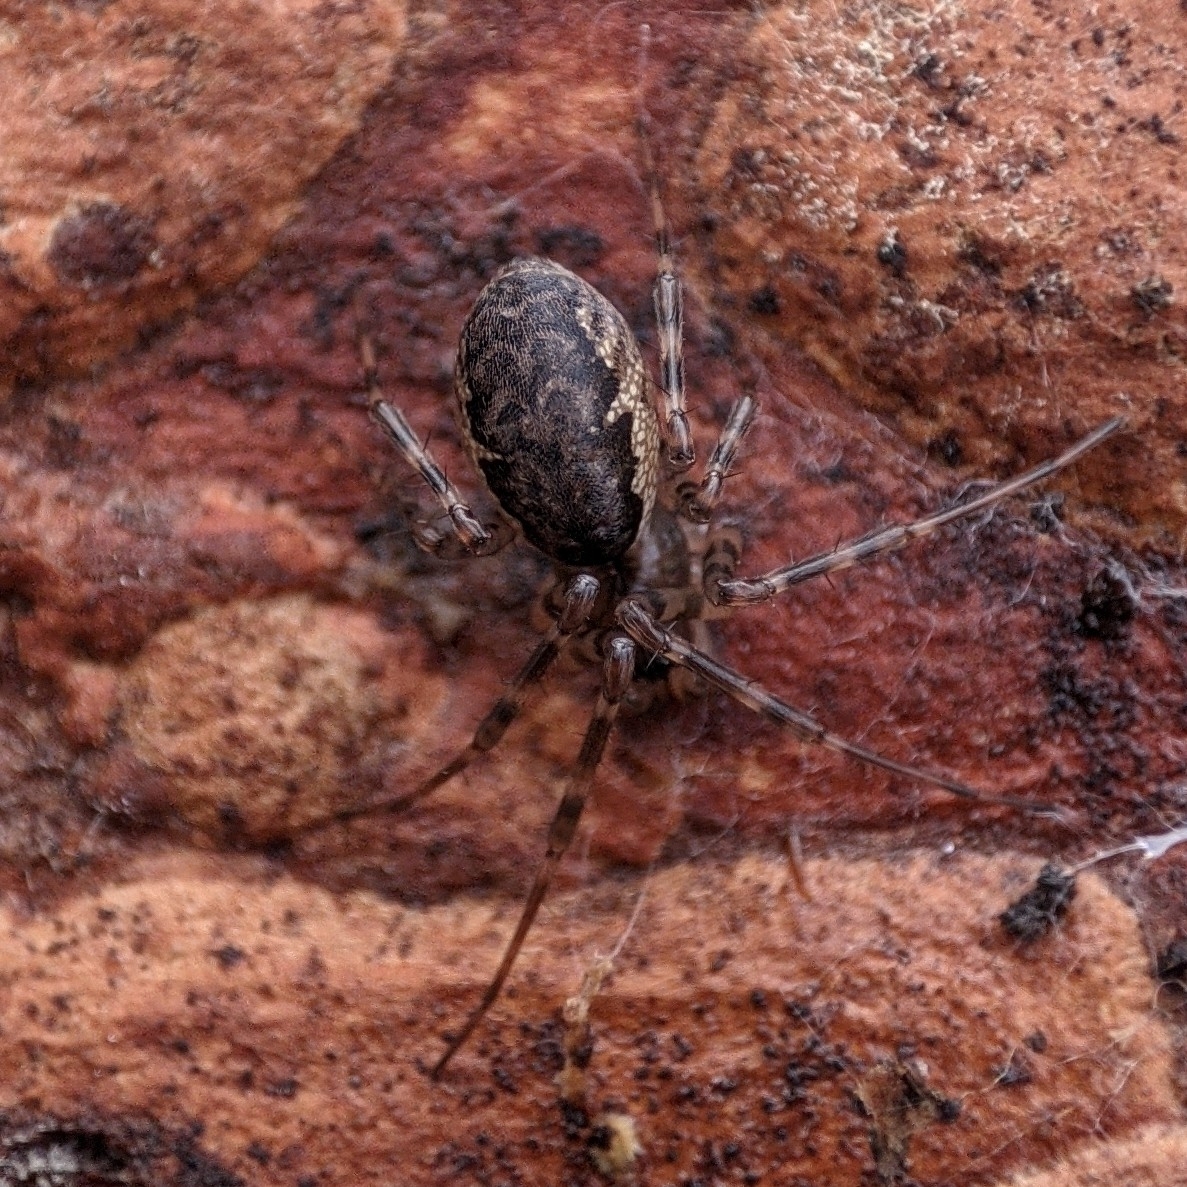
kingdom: Animalia
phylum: Arthropoda
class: Arachnida
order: Araneae
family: Linyphiidae
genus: Neriene
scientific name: Neriene montana
